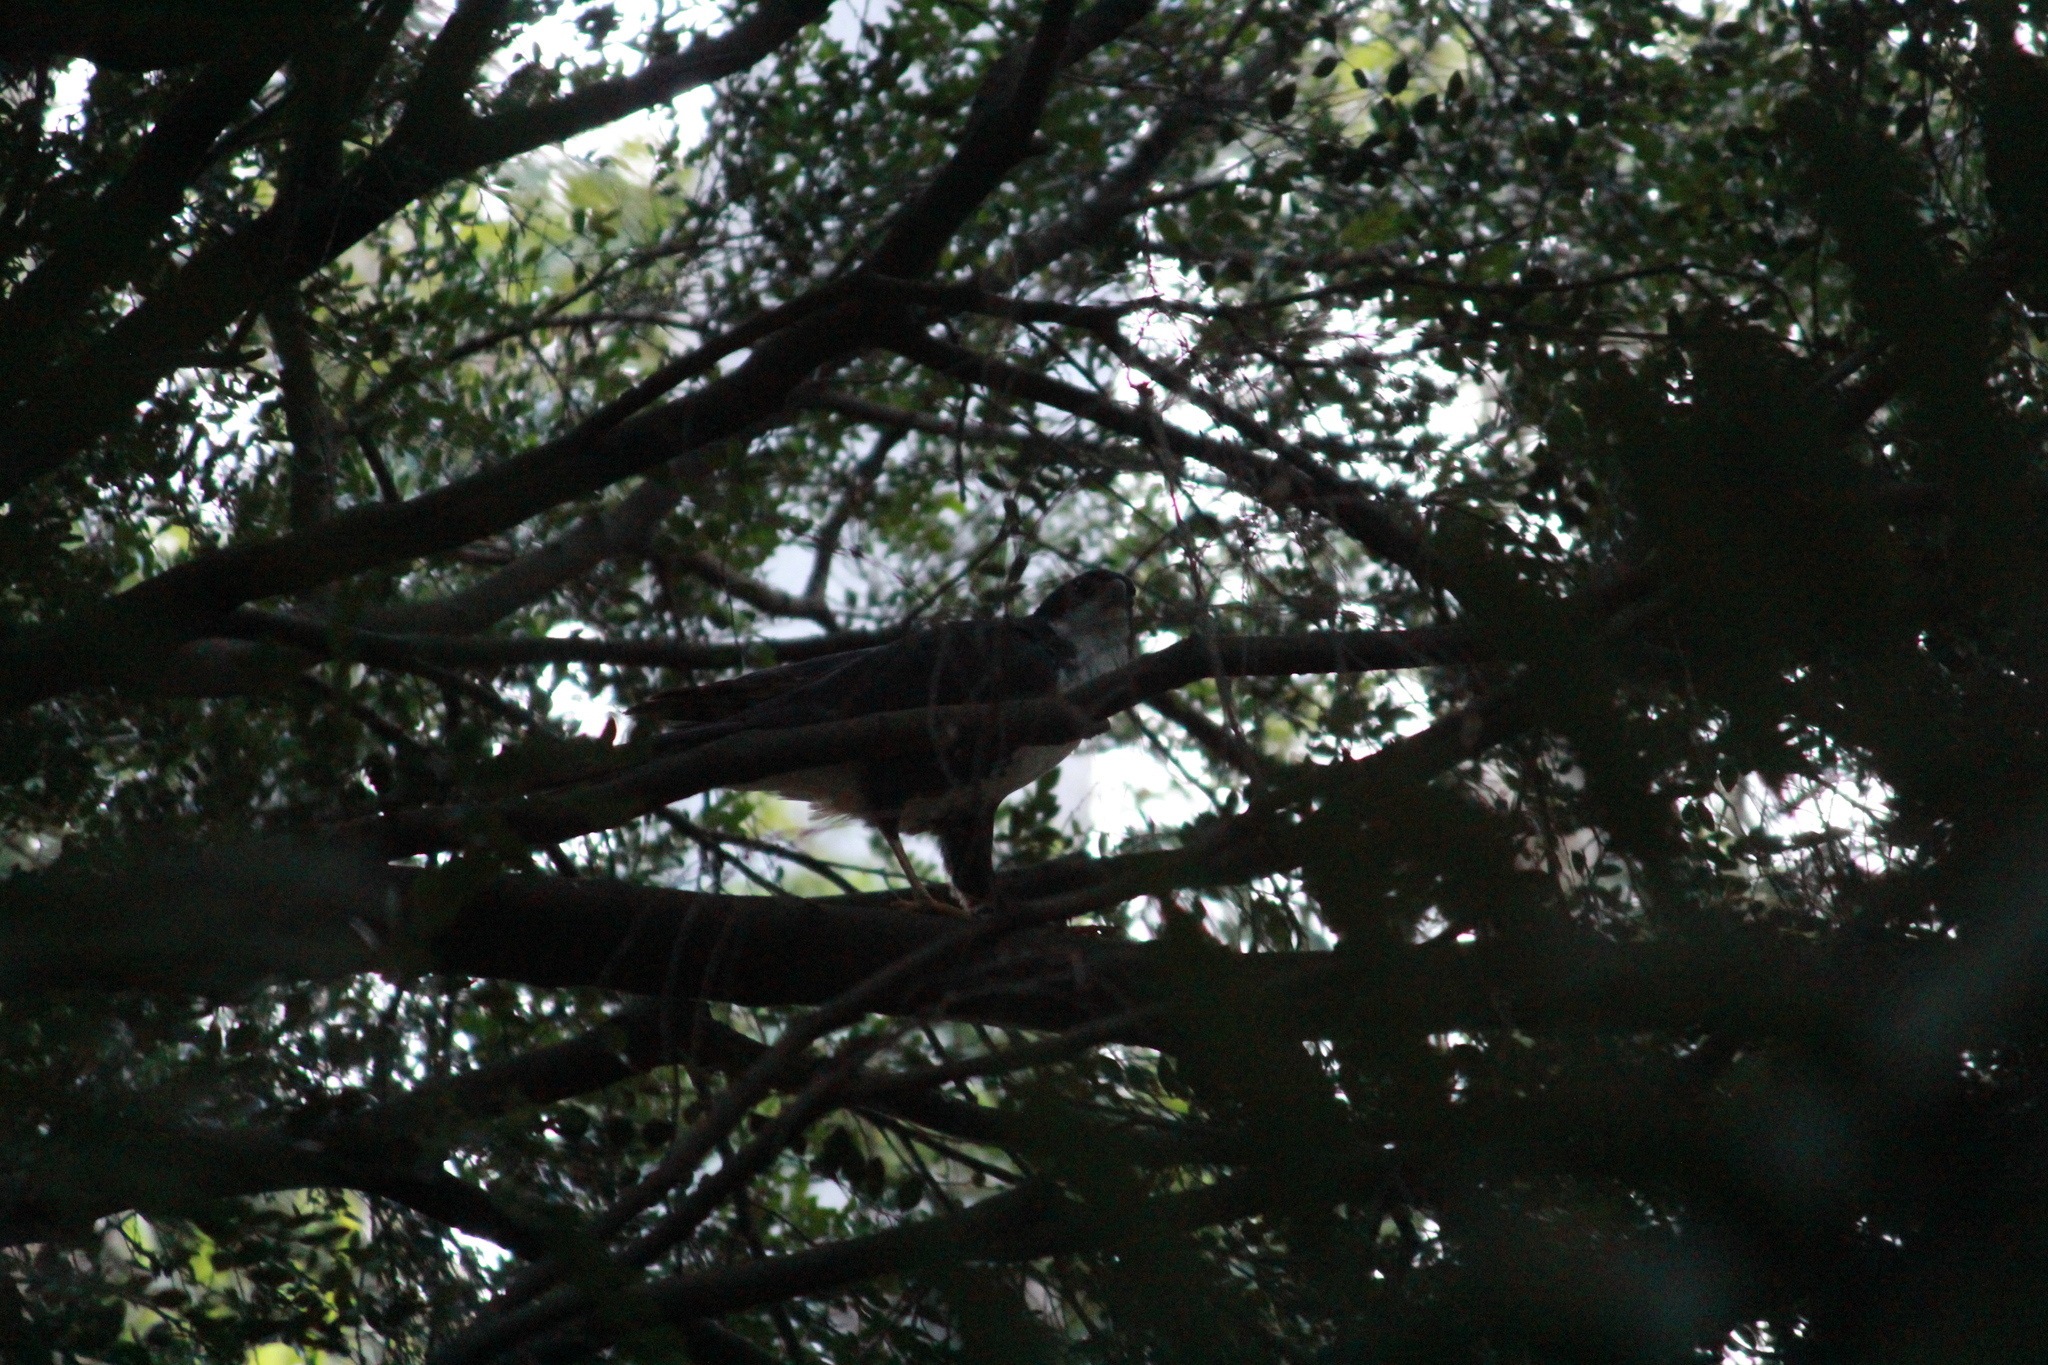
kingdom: Animalia
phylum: Chordata
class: Aves
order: Accipitriformes
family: Accipitridae
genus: Accipiter
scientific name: Accipiter melanoleucus
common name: Black sparrowhawk
